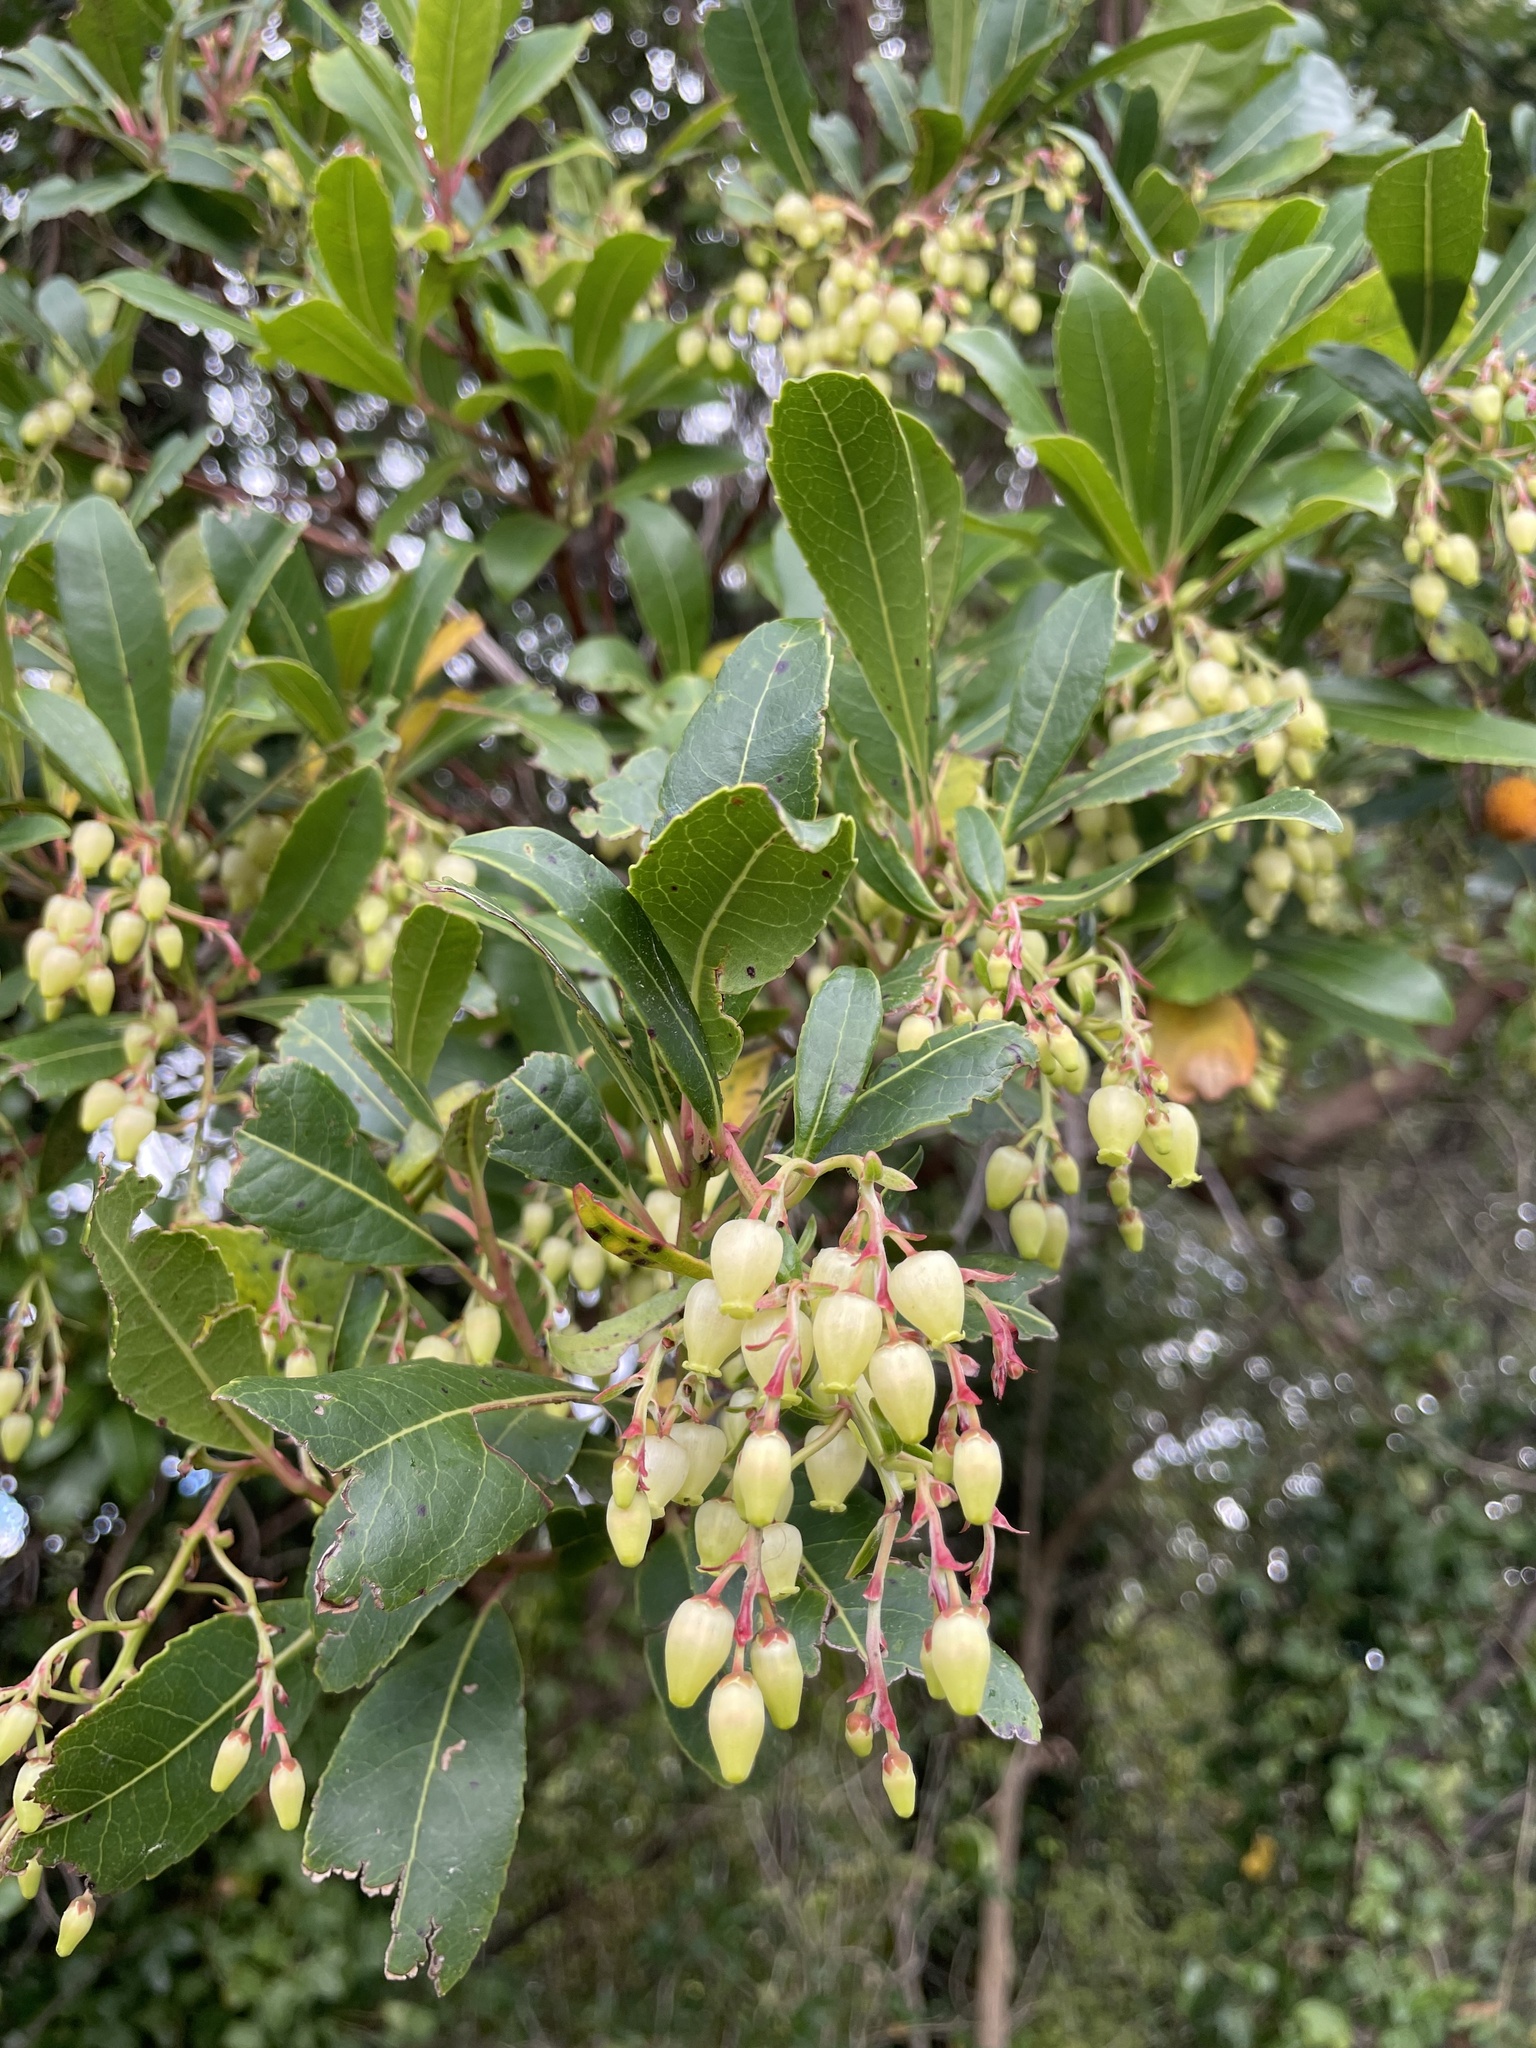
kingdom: Plantae
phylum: Tracheophyta
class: Magnoliopsida
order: Ericales
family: Ericaceae
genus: Arbutus
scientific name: Arbutus unedo
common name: Strawberry-tree
